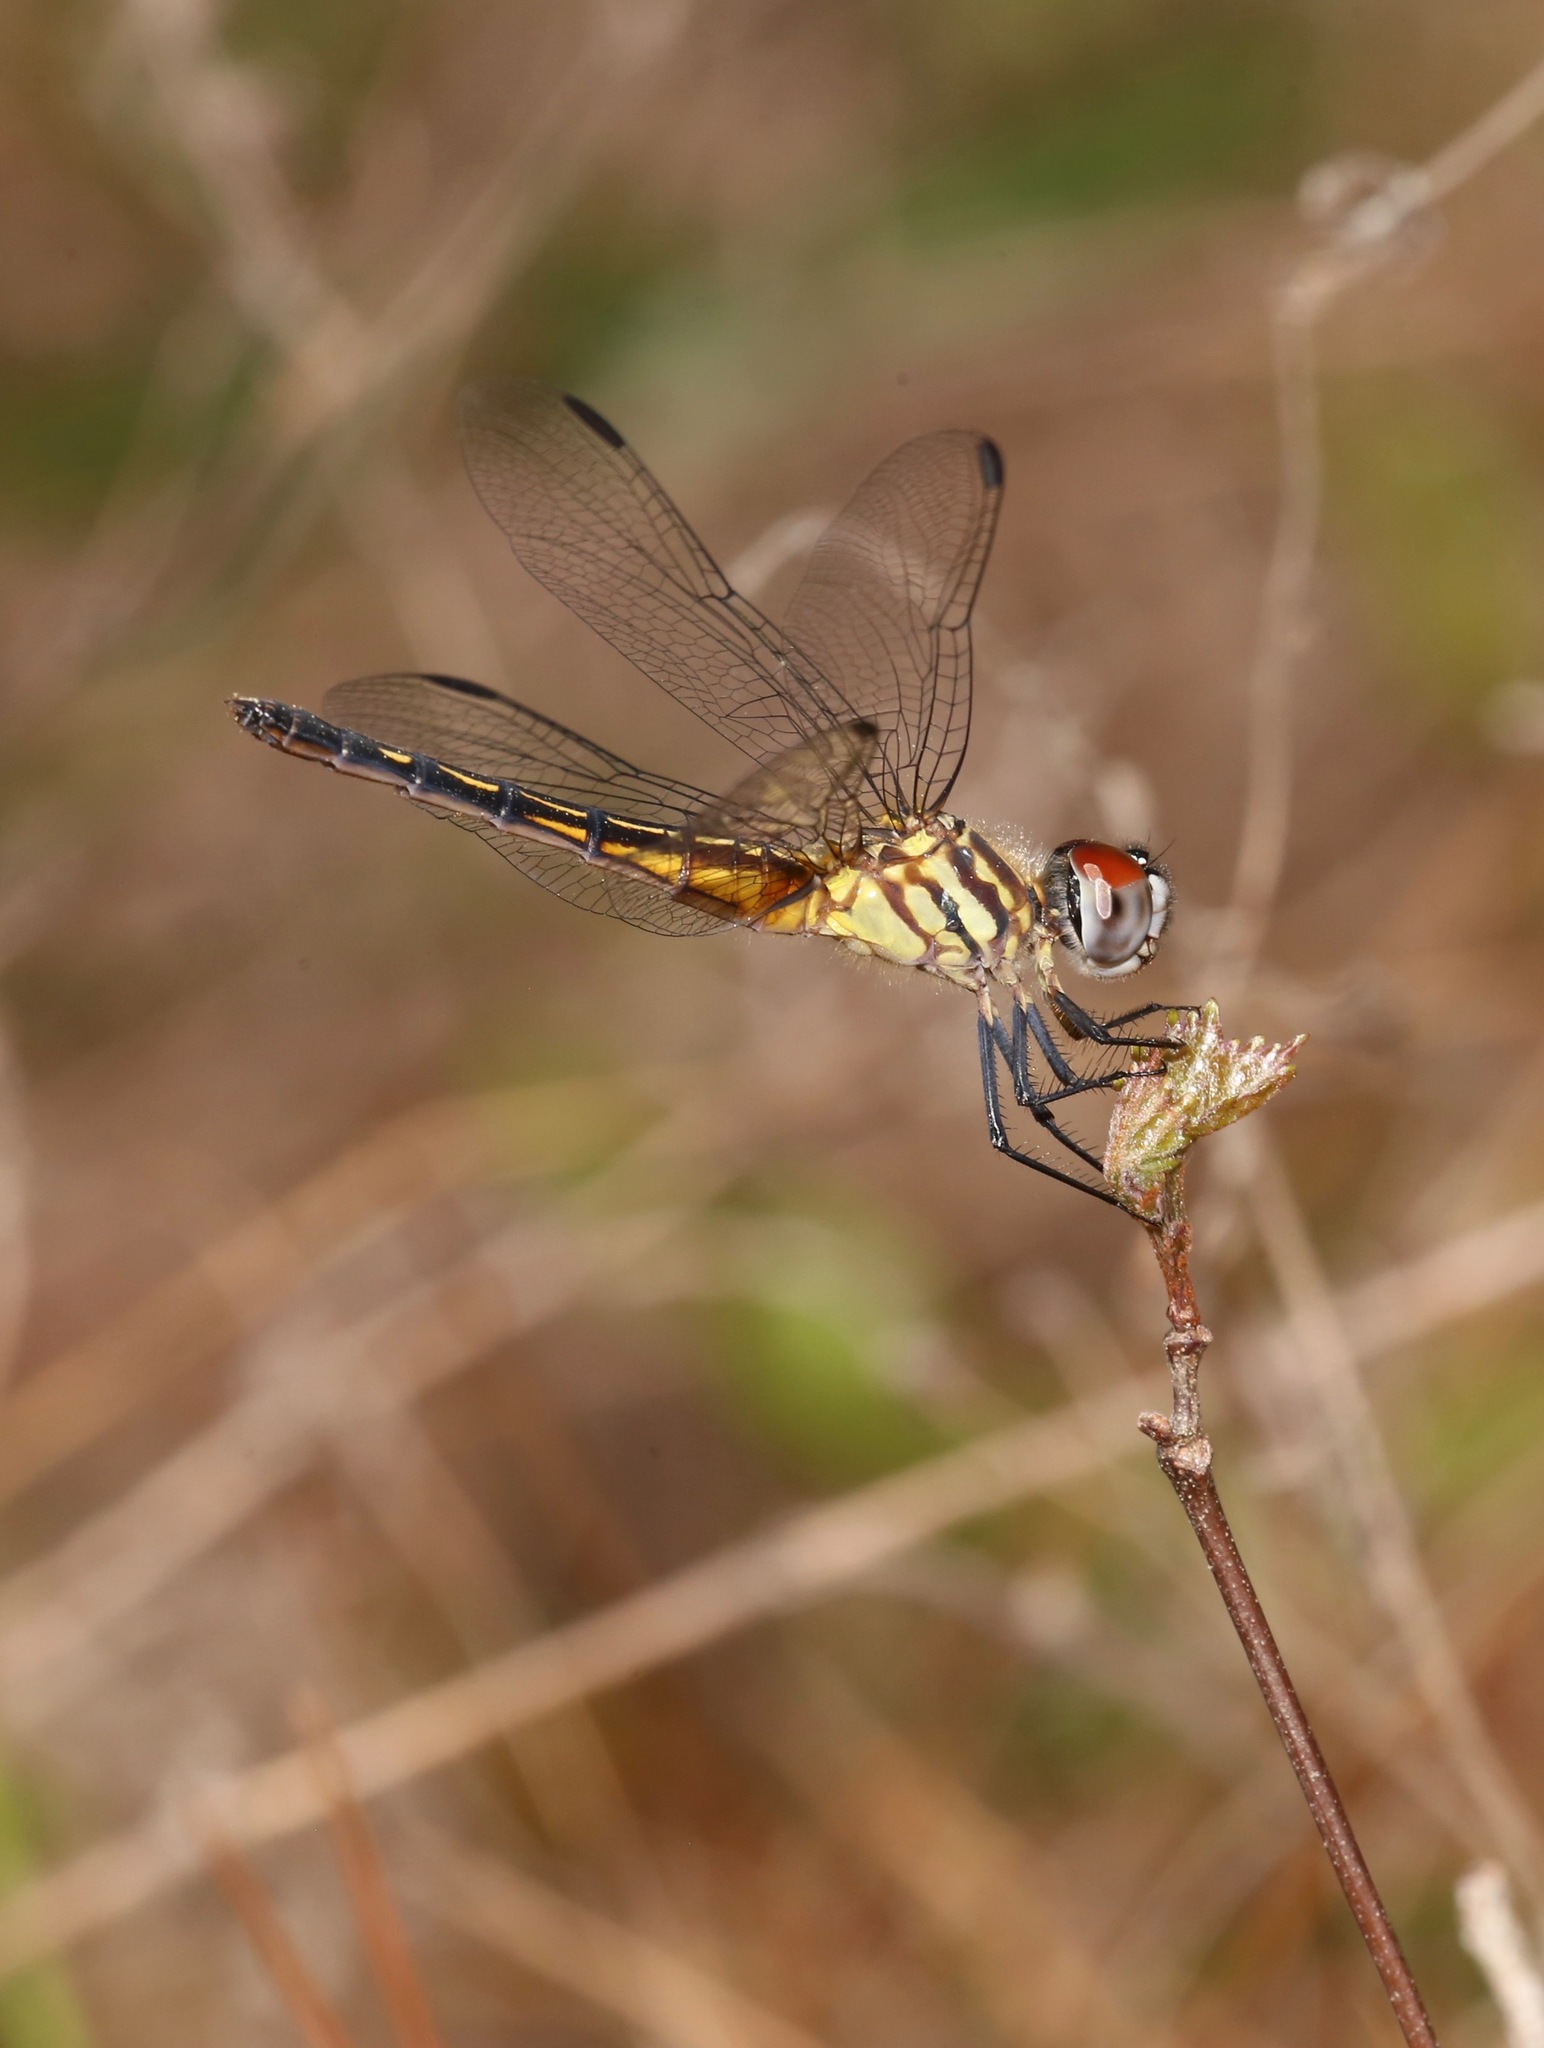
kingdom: Animalia
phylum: Arthropoda
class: Insecta
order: Odonata
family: Libellulidae
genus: Pachydiplax
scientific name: Pachydiplax longipennis
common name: Blue dasher
